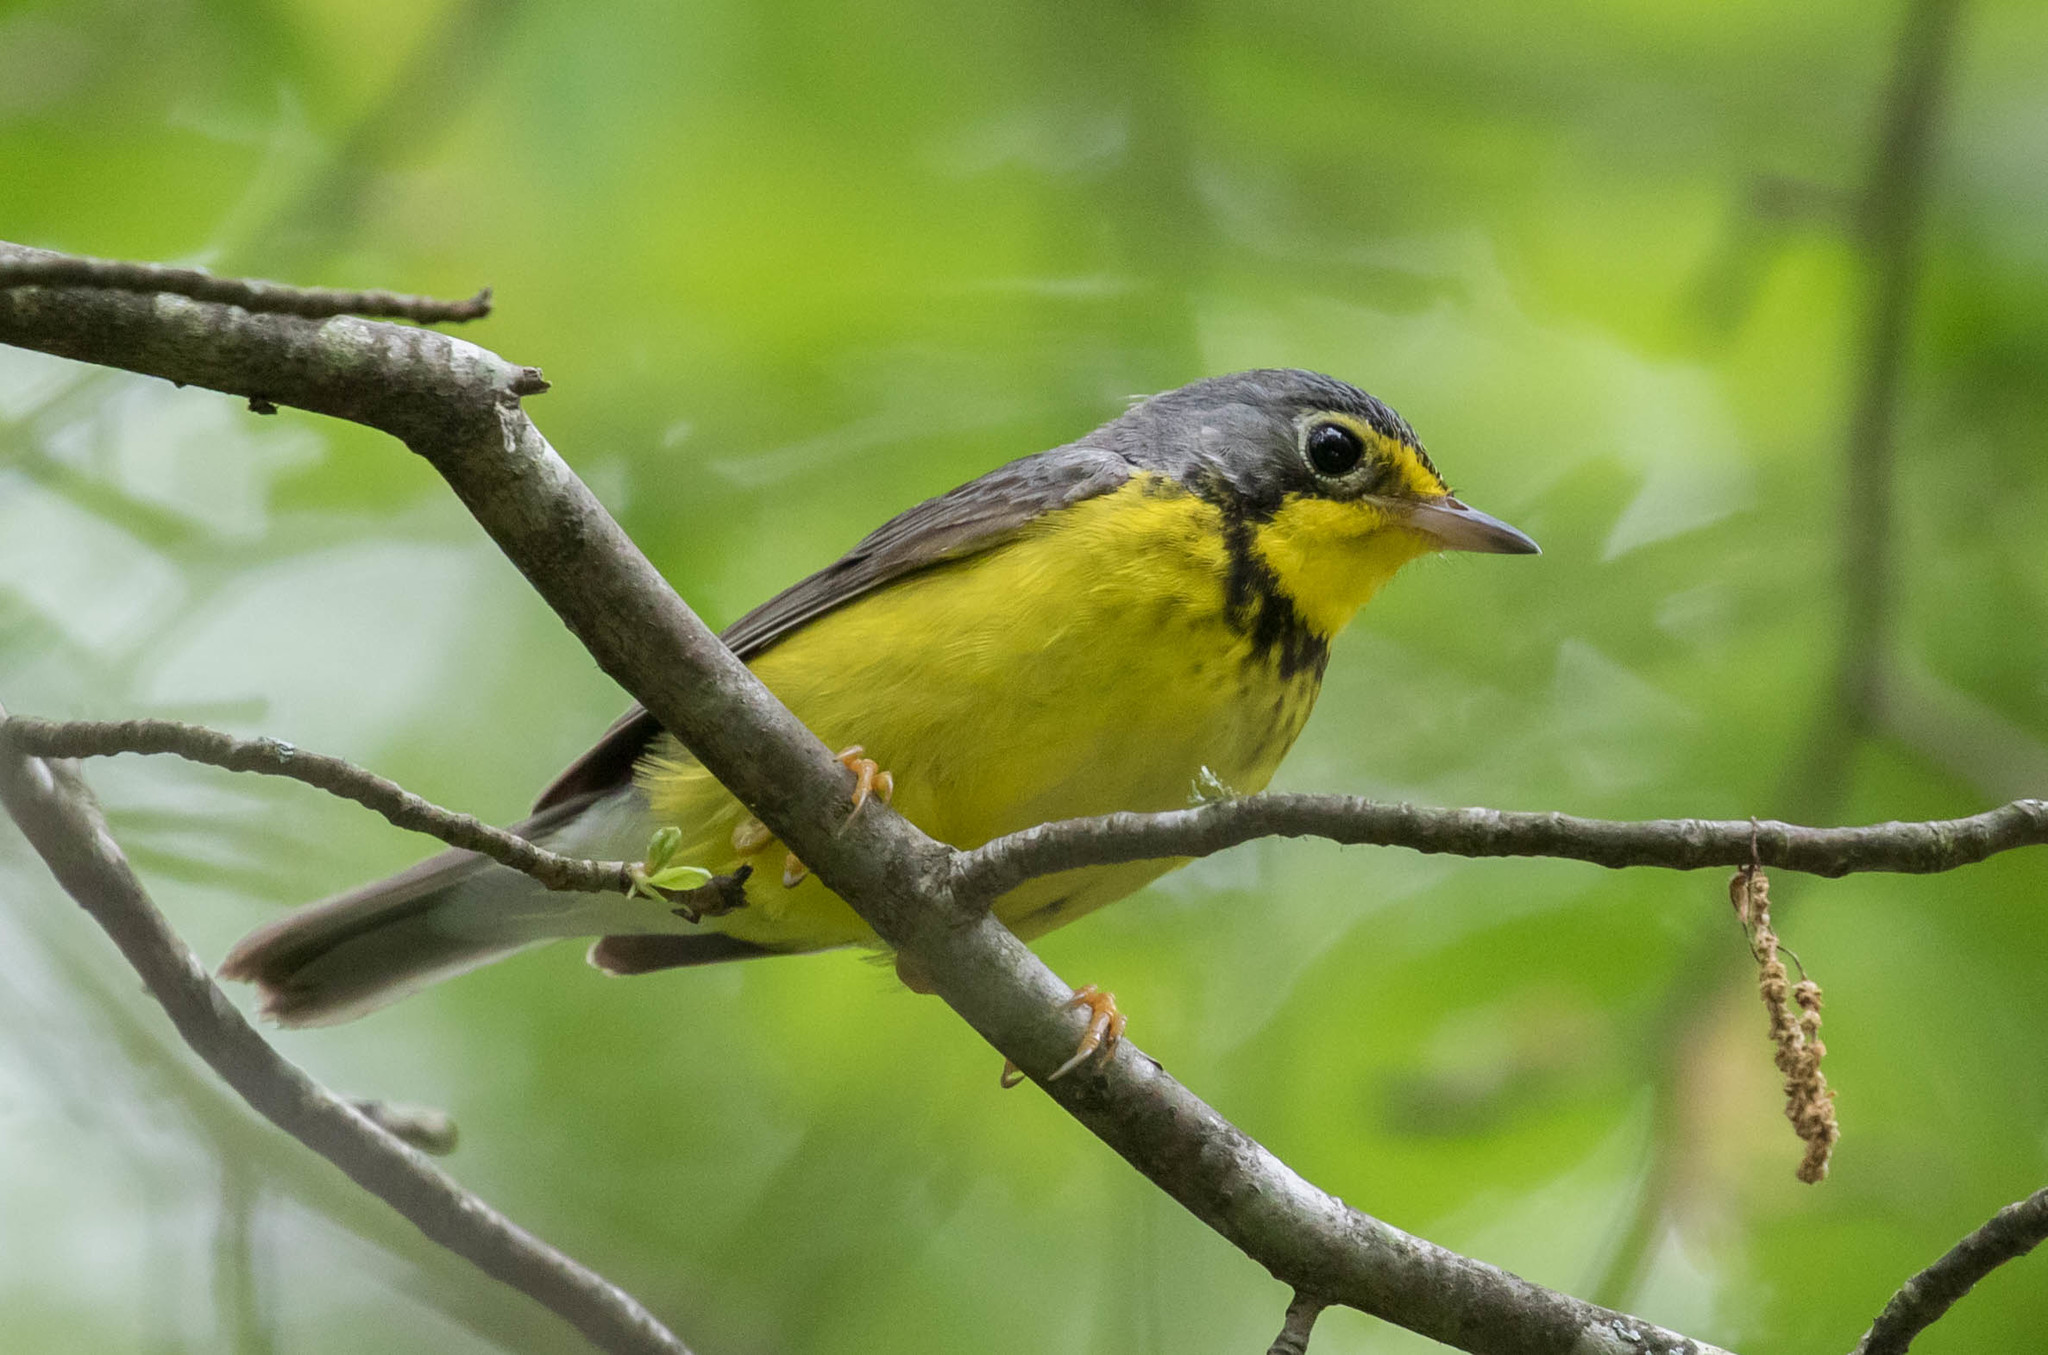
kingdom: Animalia
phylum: Chordata
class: Aves
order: Passeriformes
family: Parulidae
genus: Cardellina
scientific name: Cardellina canadensis
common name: Canada warbler
